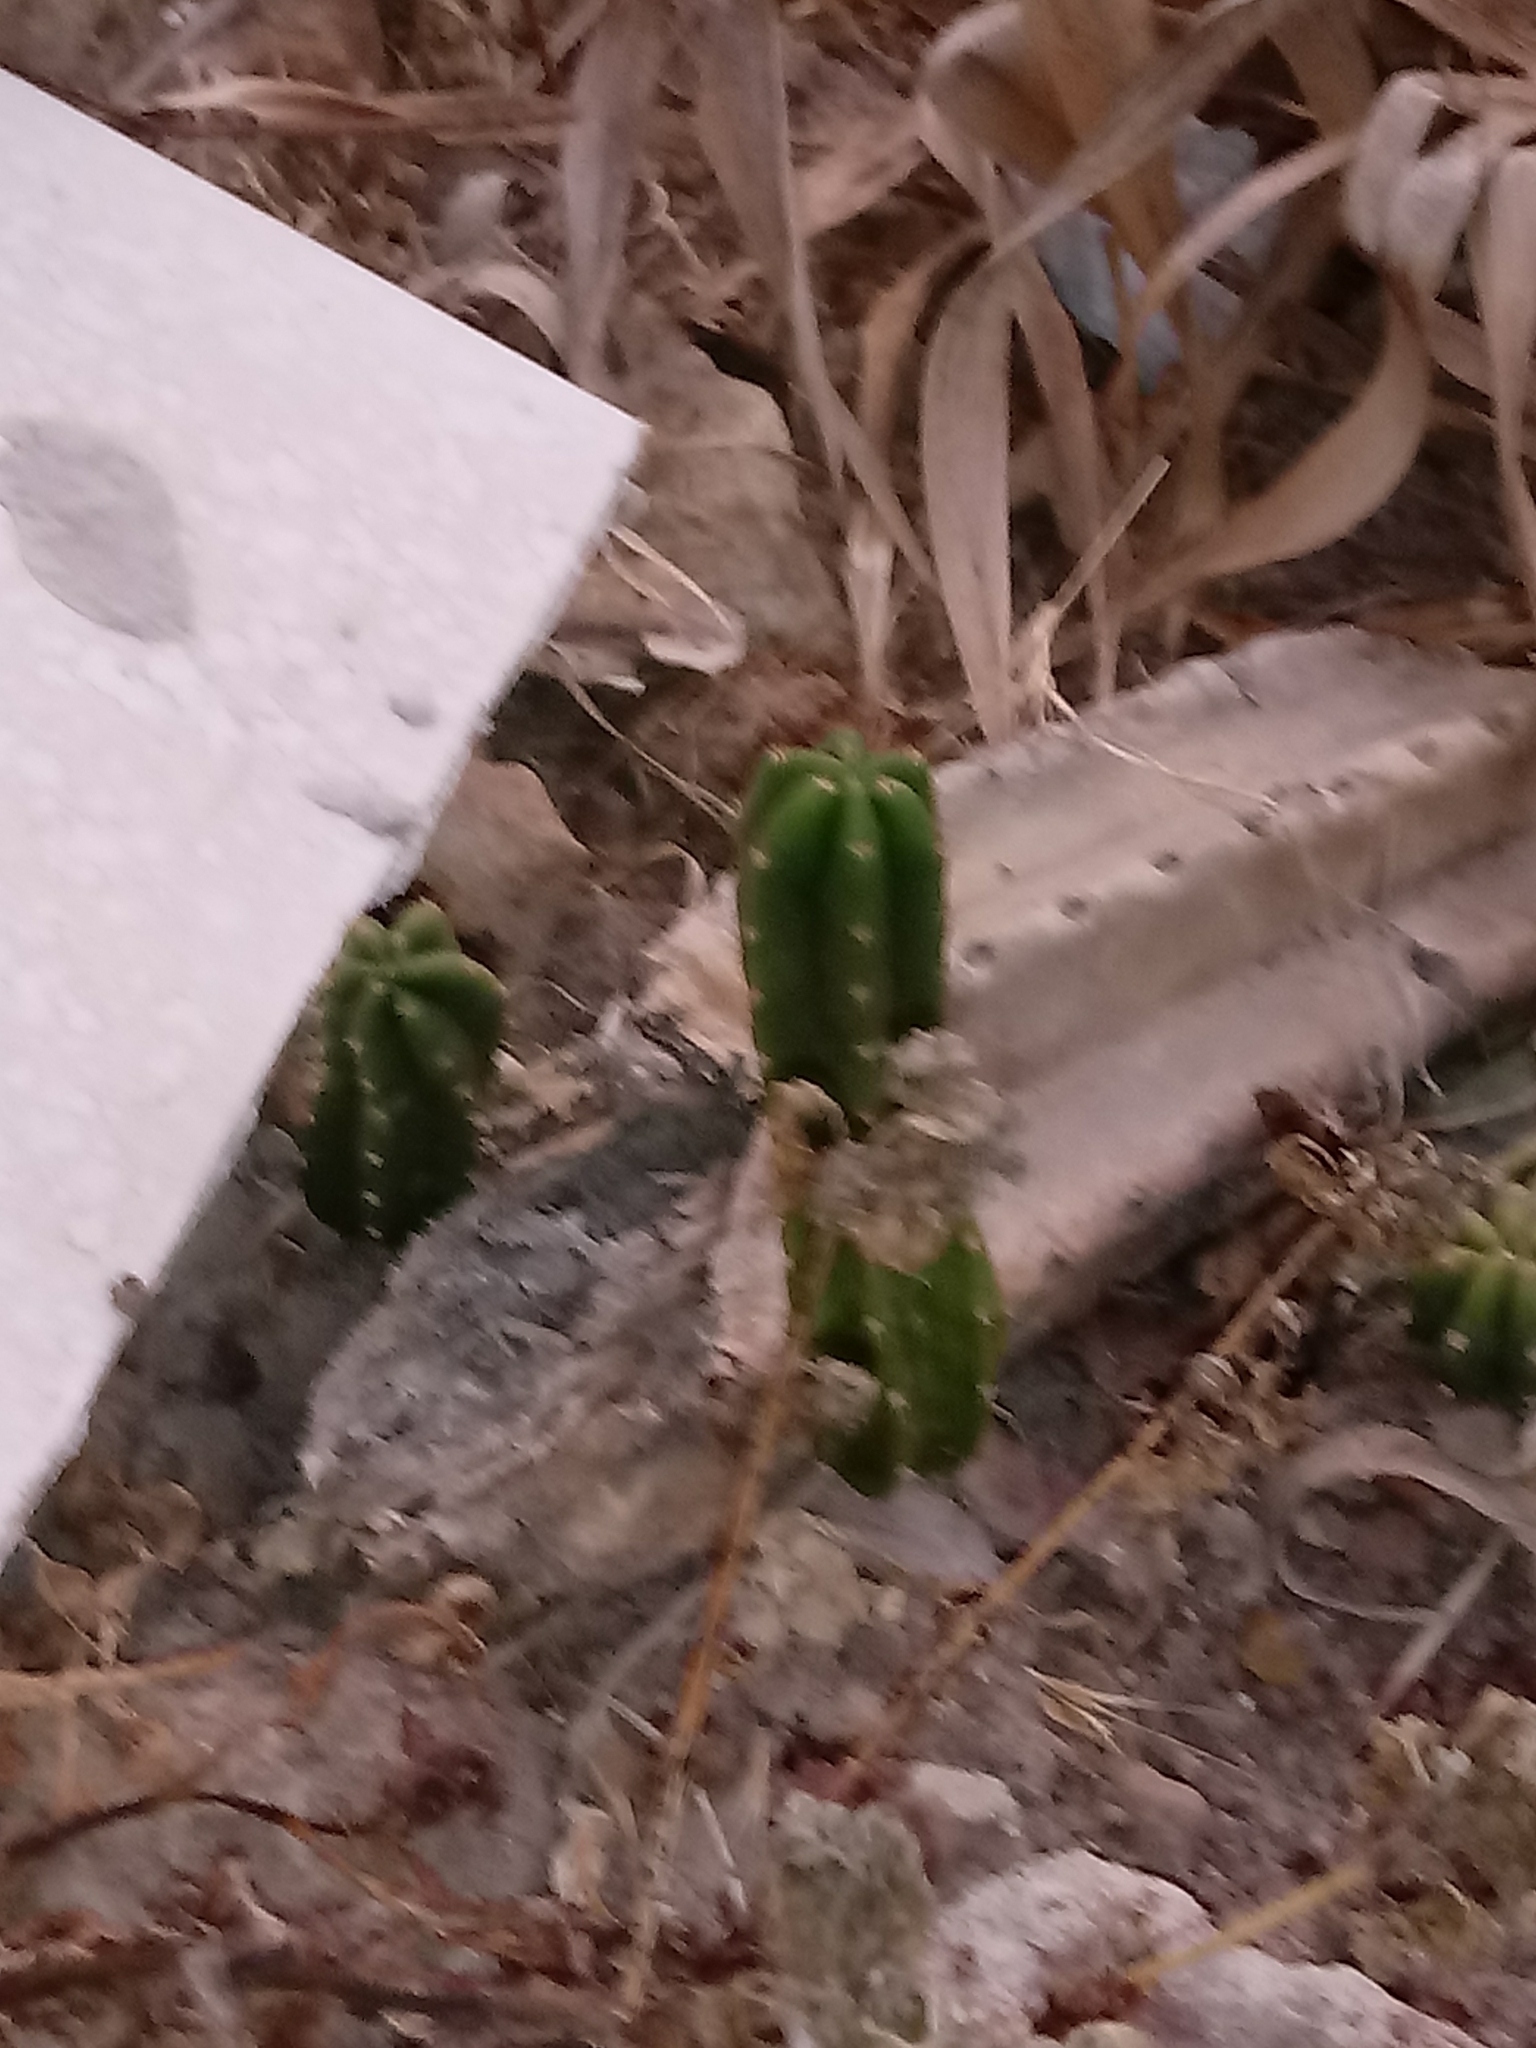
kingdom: Plantae
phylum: Tracheophyta
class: Magnoliopsida
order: Caryophyllales
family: Cactaceae
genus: Trichocereus
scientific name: Trichocereus macrogonus
